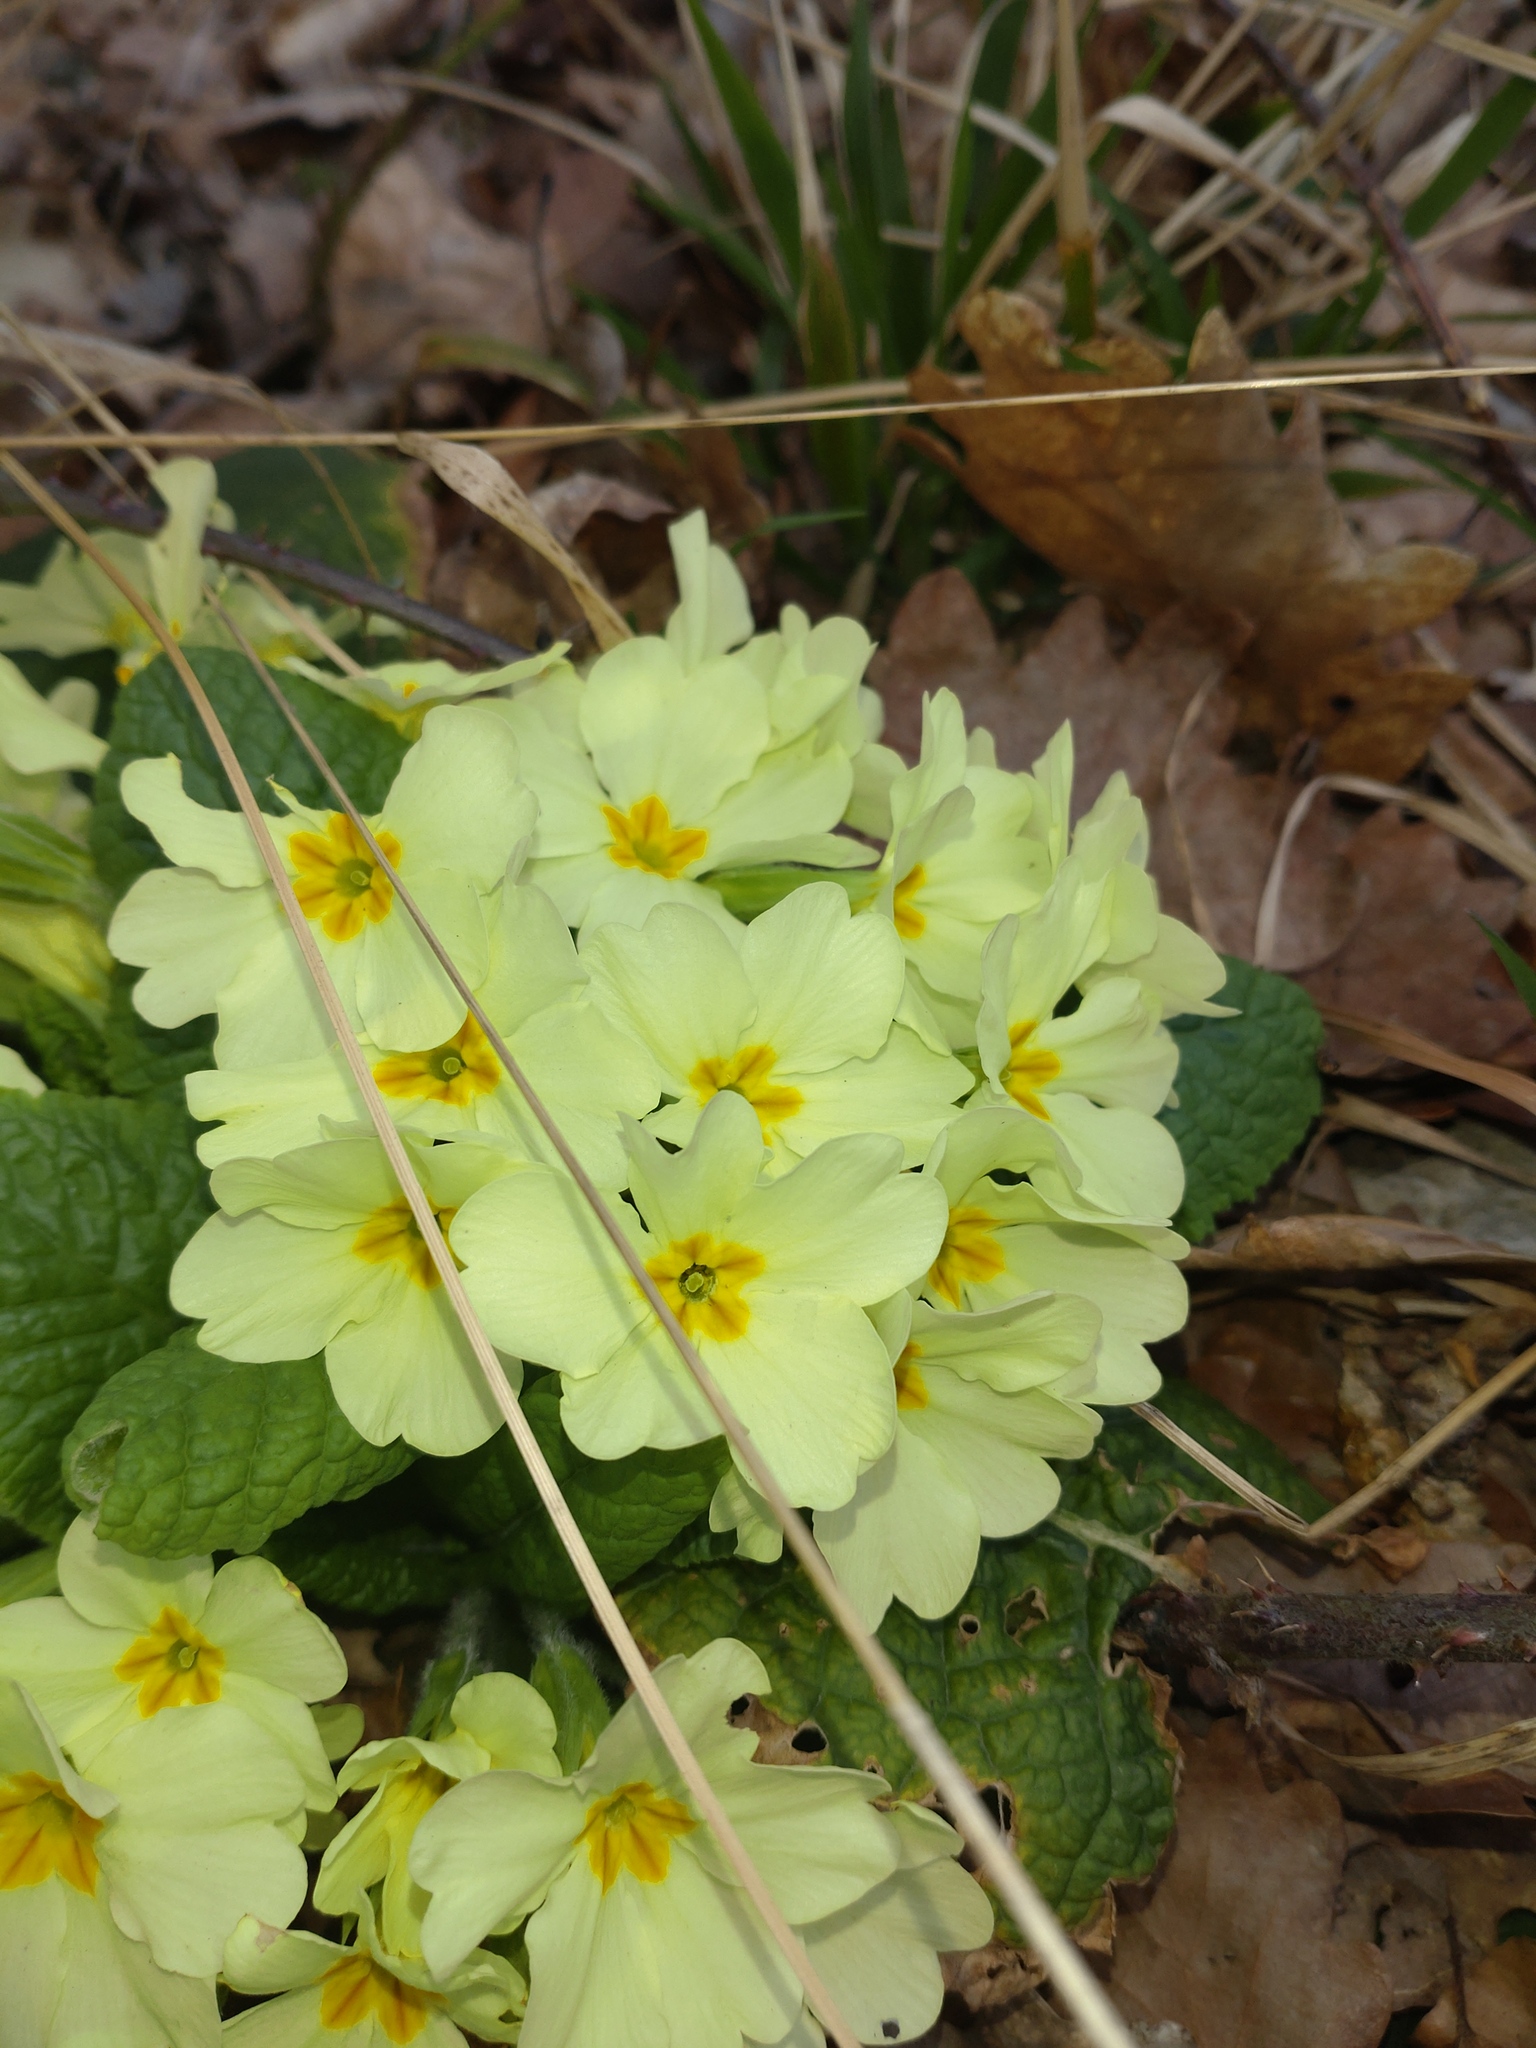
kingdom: Plantae
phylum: Tracheophyta
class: Magnoliopsida
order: Ericales
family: Primulaceae
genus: Primula
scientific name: Primula vulgaris
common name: Primrose
